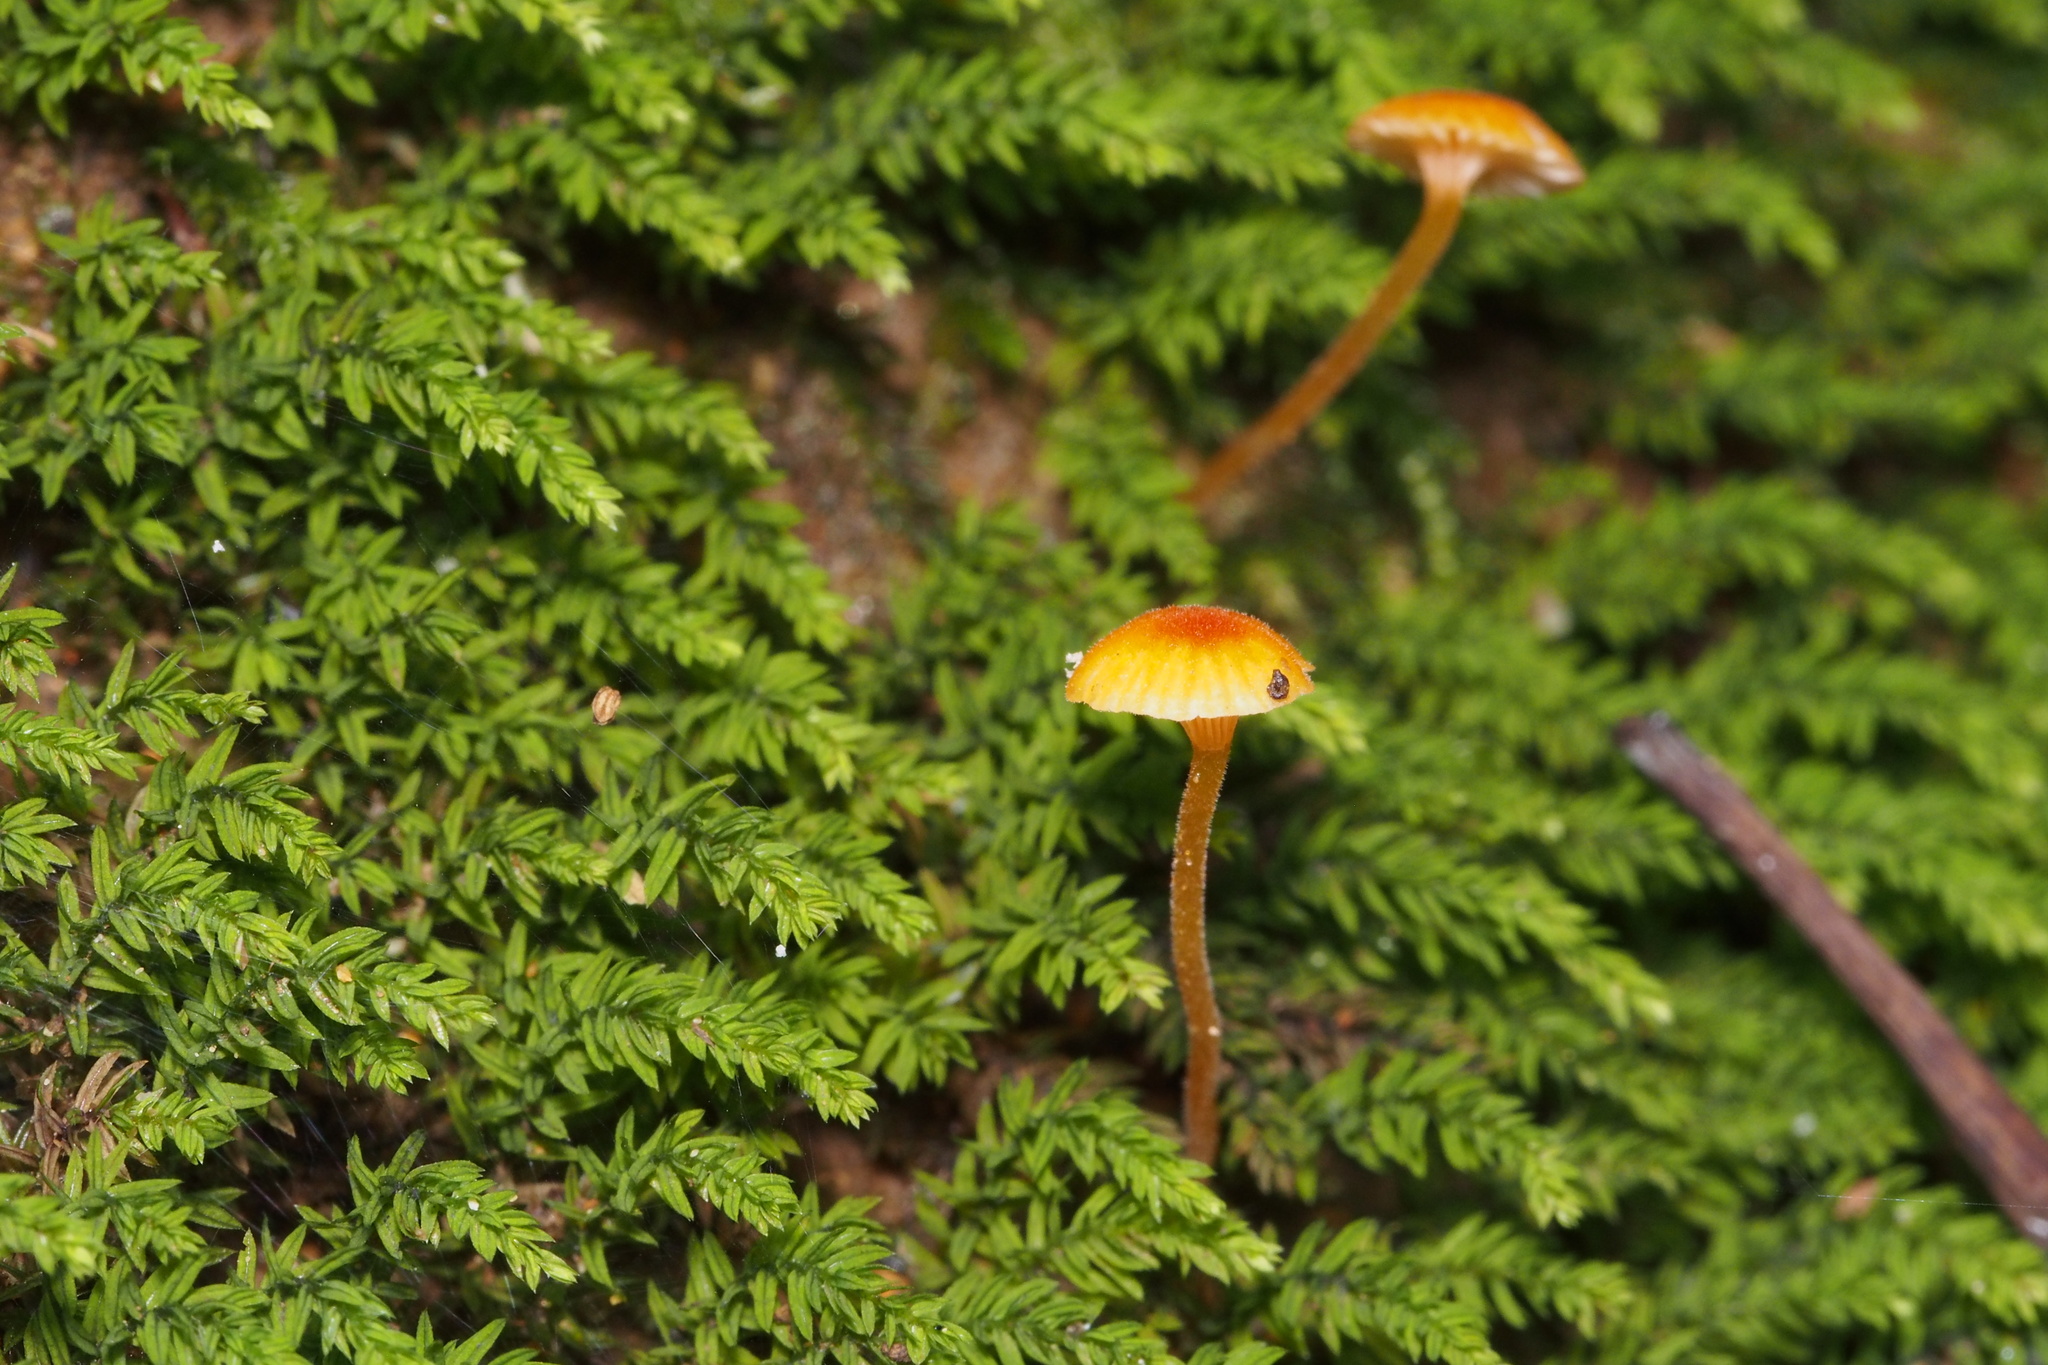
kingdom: Fungi
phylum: Basidiomycota
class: Agaricomycetes
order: Agaricales
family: Mycenaceae
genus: Mycena
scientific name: Mycena acicula
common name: Orange bonnet
